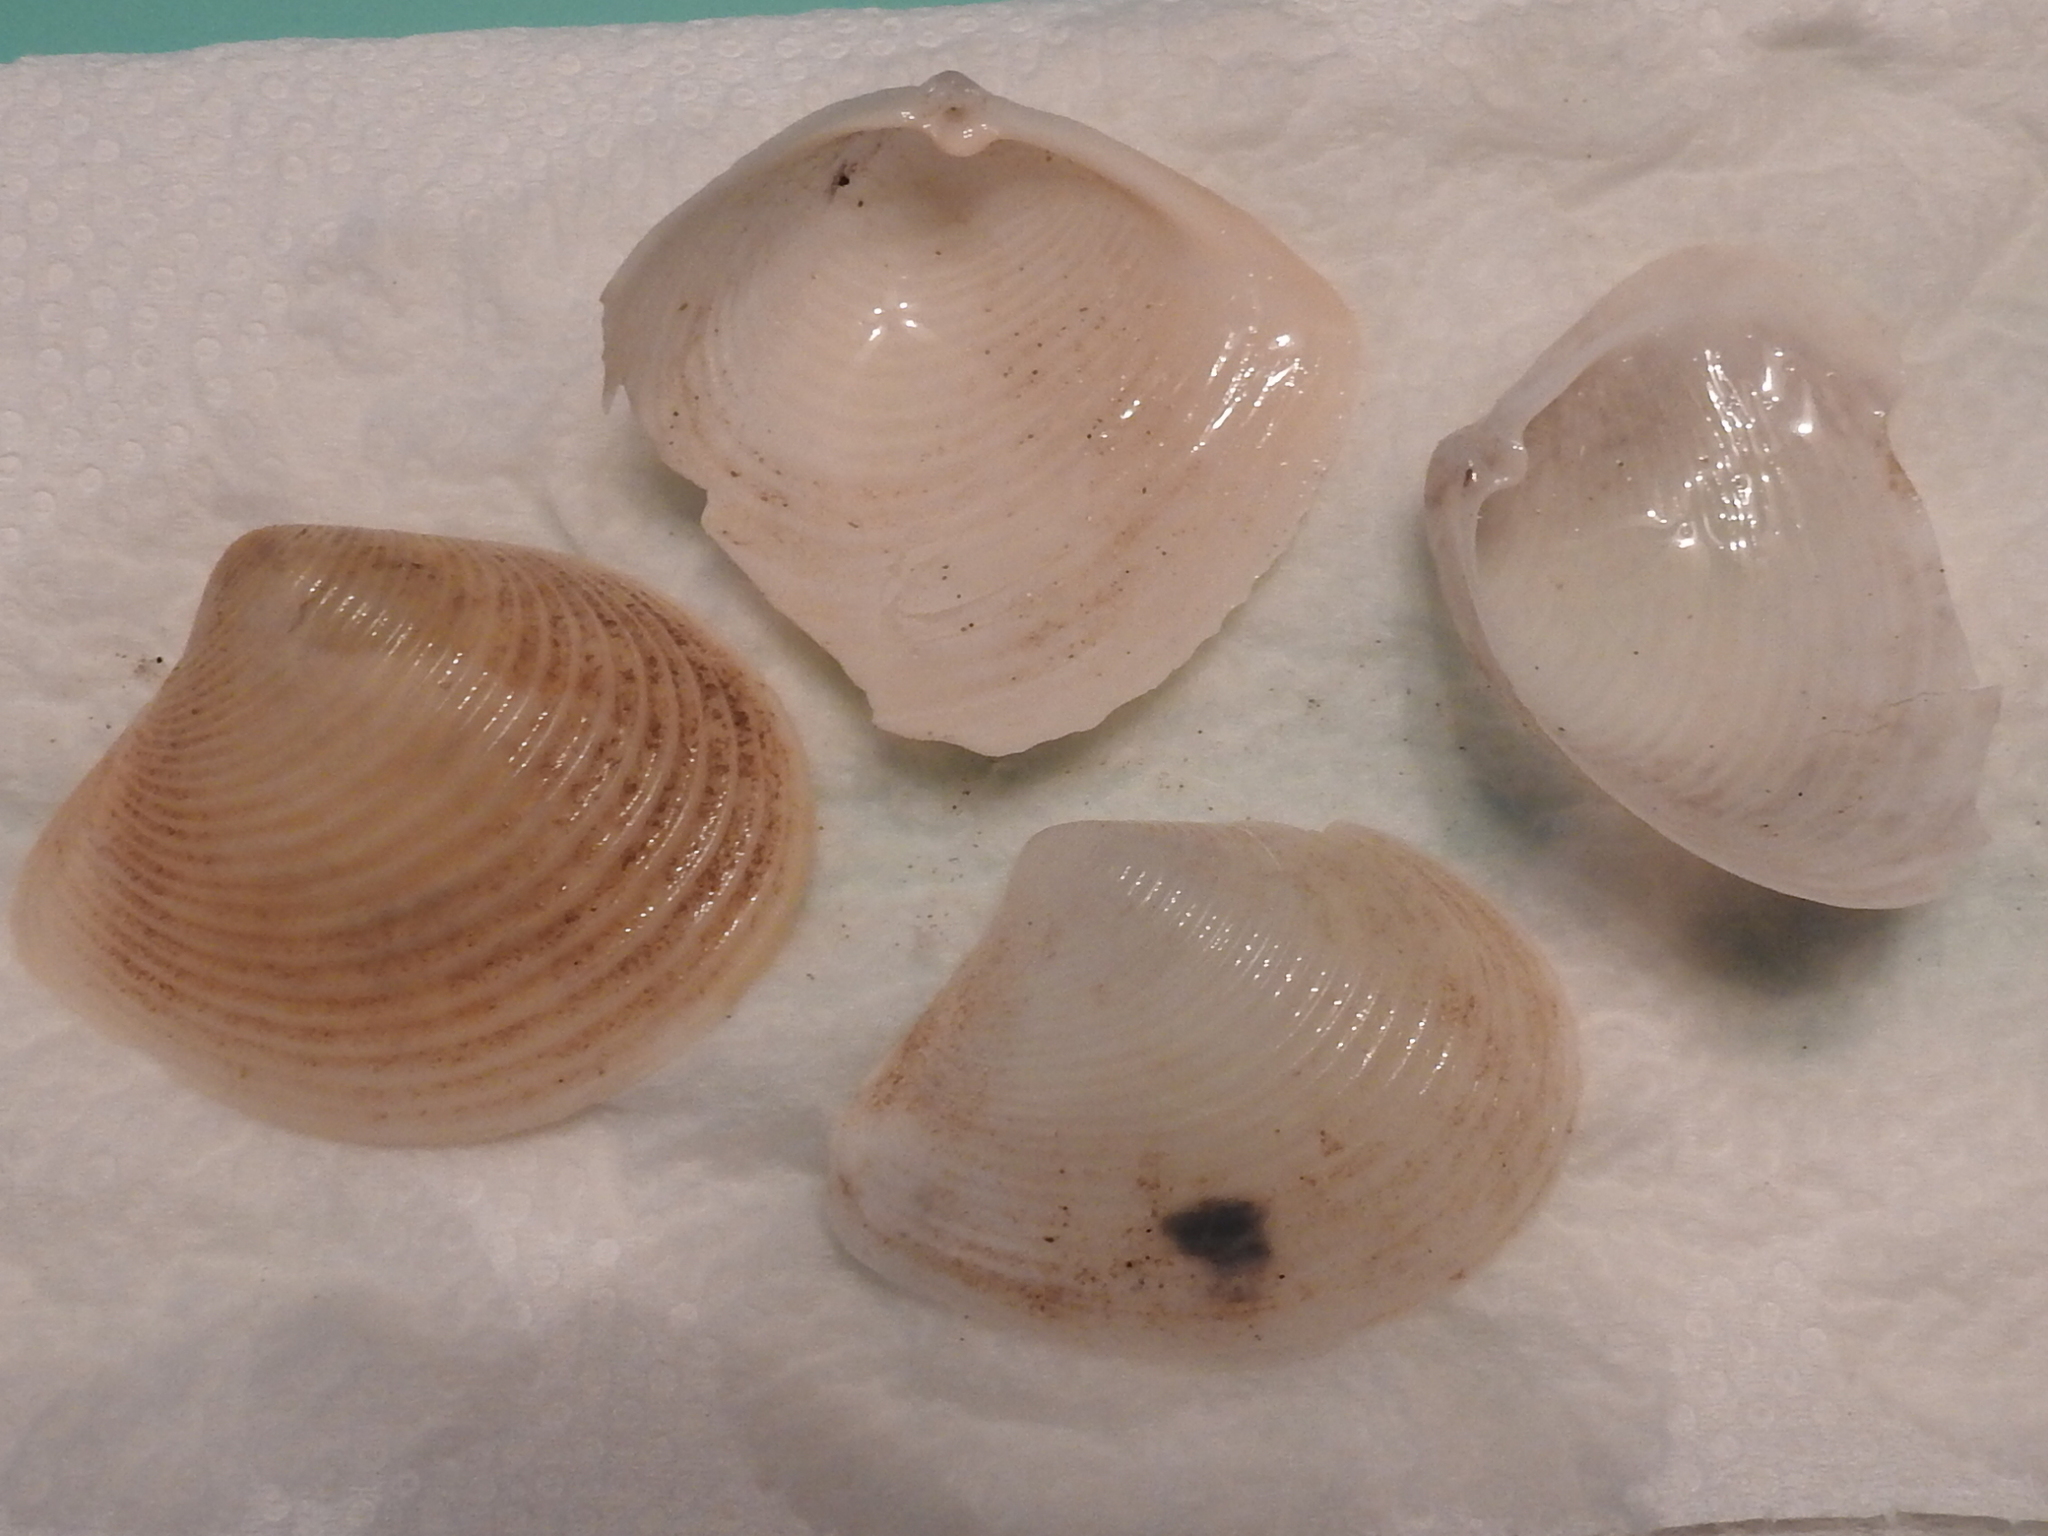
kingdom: Animalia
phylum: Mollusca
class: Bivalvia
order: Venerida
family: Anatinellidae
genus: Raeta
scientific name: Raeta plicatella
